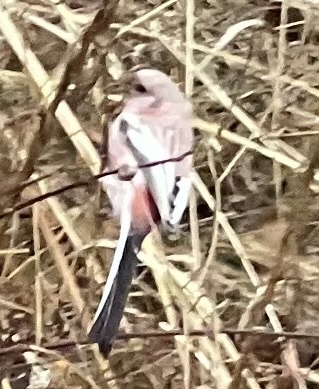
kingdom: Animalia
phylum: Chordata
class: Aves
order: Passeriformes
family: Fringillidae
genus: Carpodacus
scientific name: Carpodacus sibiricus
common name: Long-tailed rosefinch
